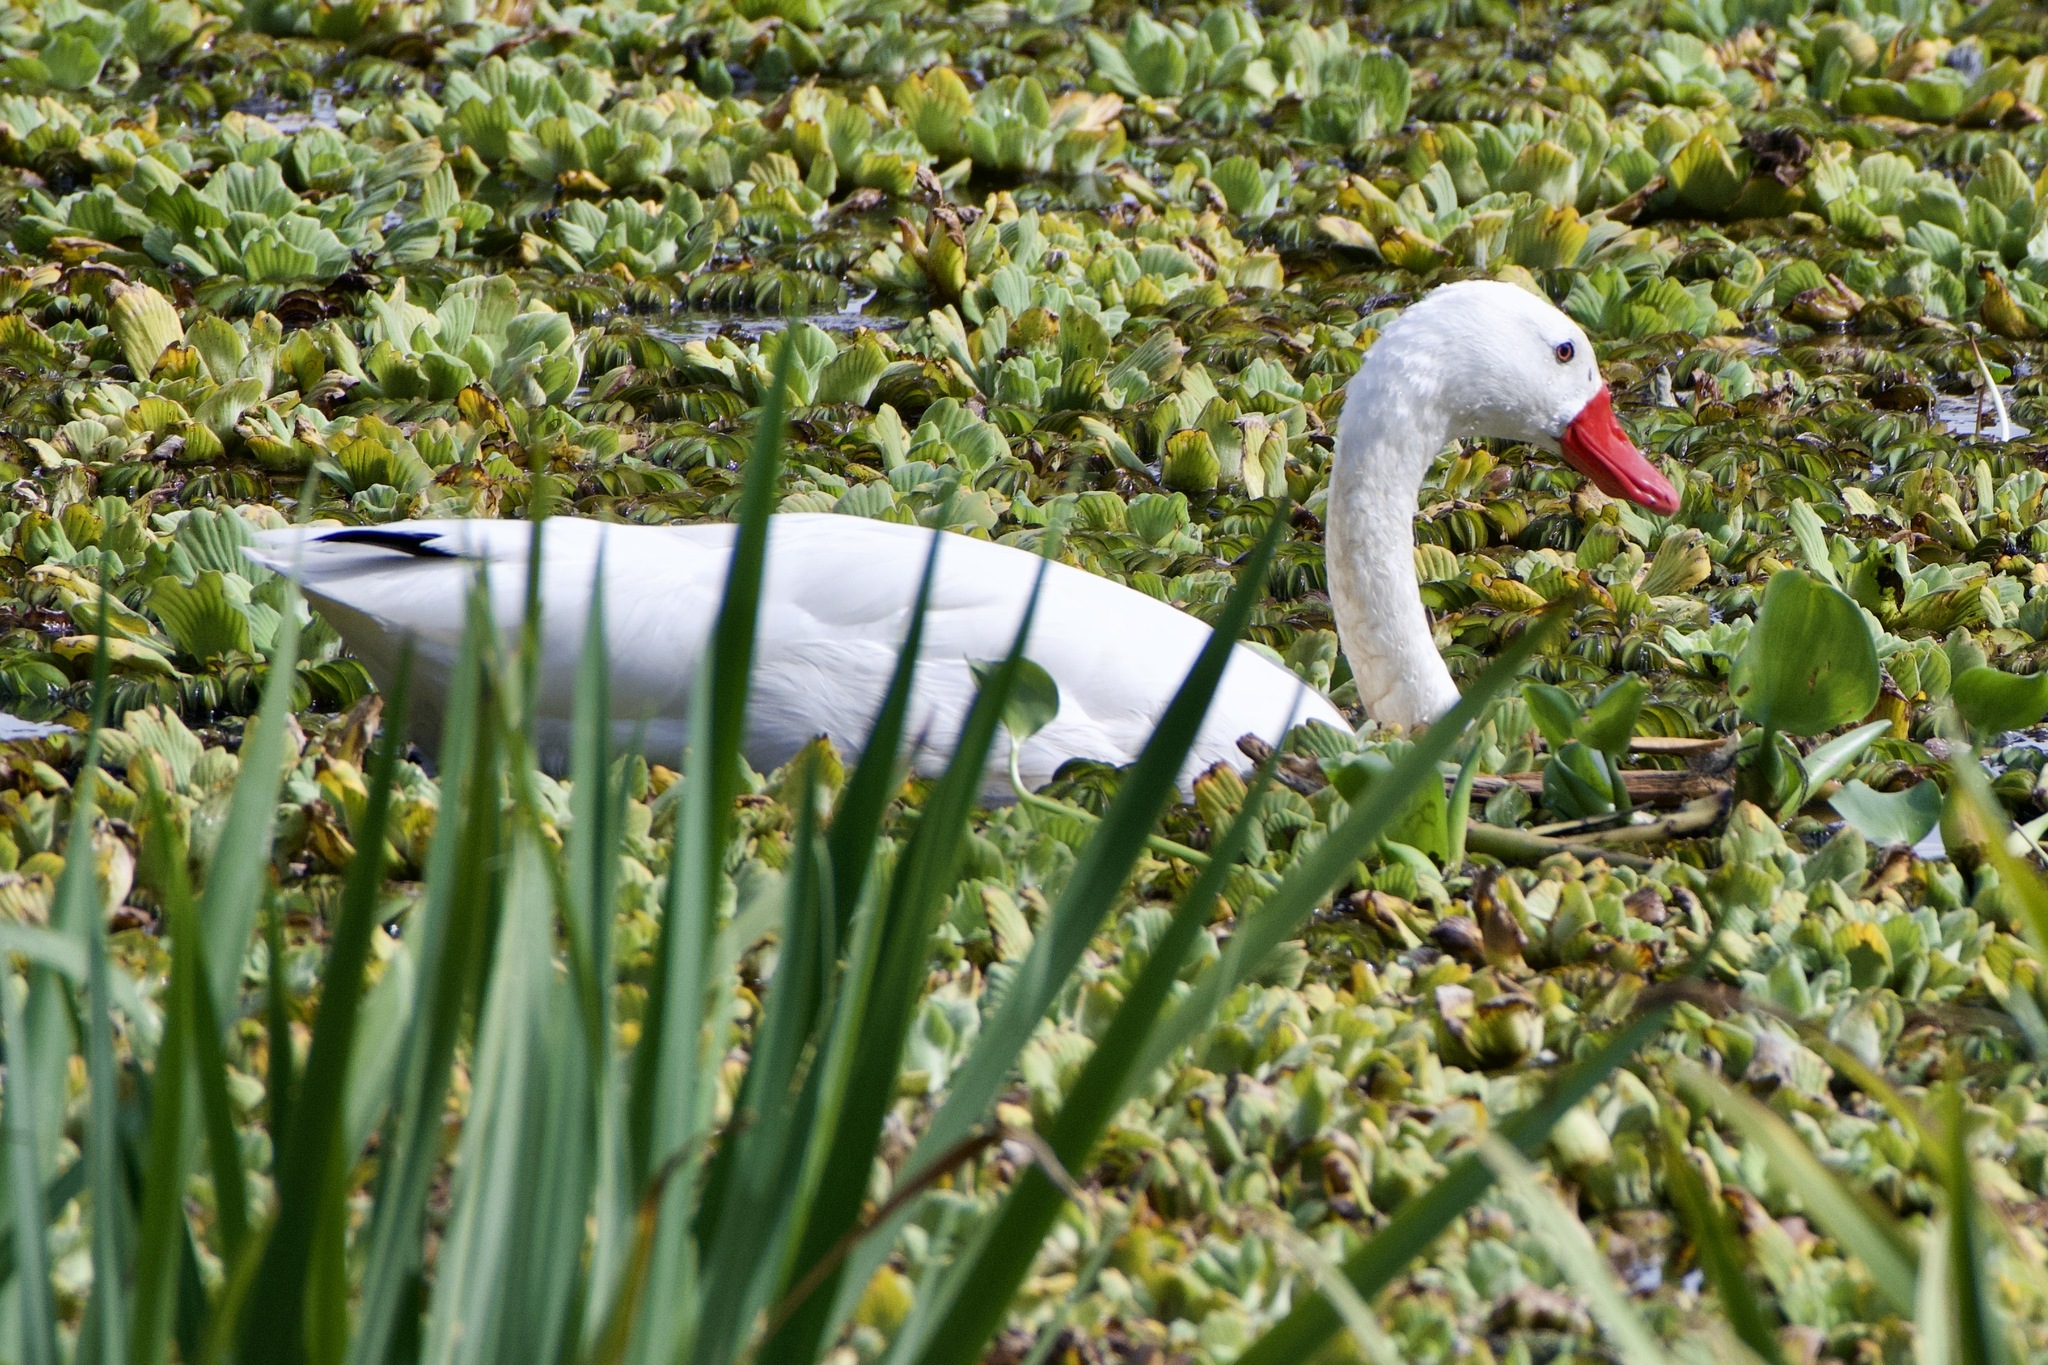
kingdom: Animalia
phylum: Chordata
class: Aves
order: Anseriformes
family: Anatidae
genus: Coscoroba
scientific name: Coscoroba coscoroba
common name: Coscoroba swan
